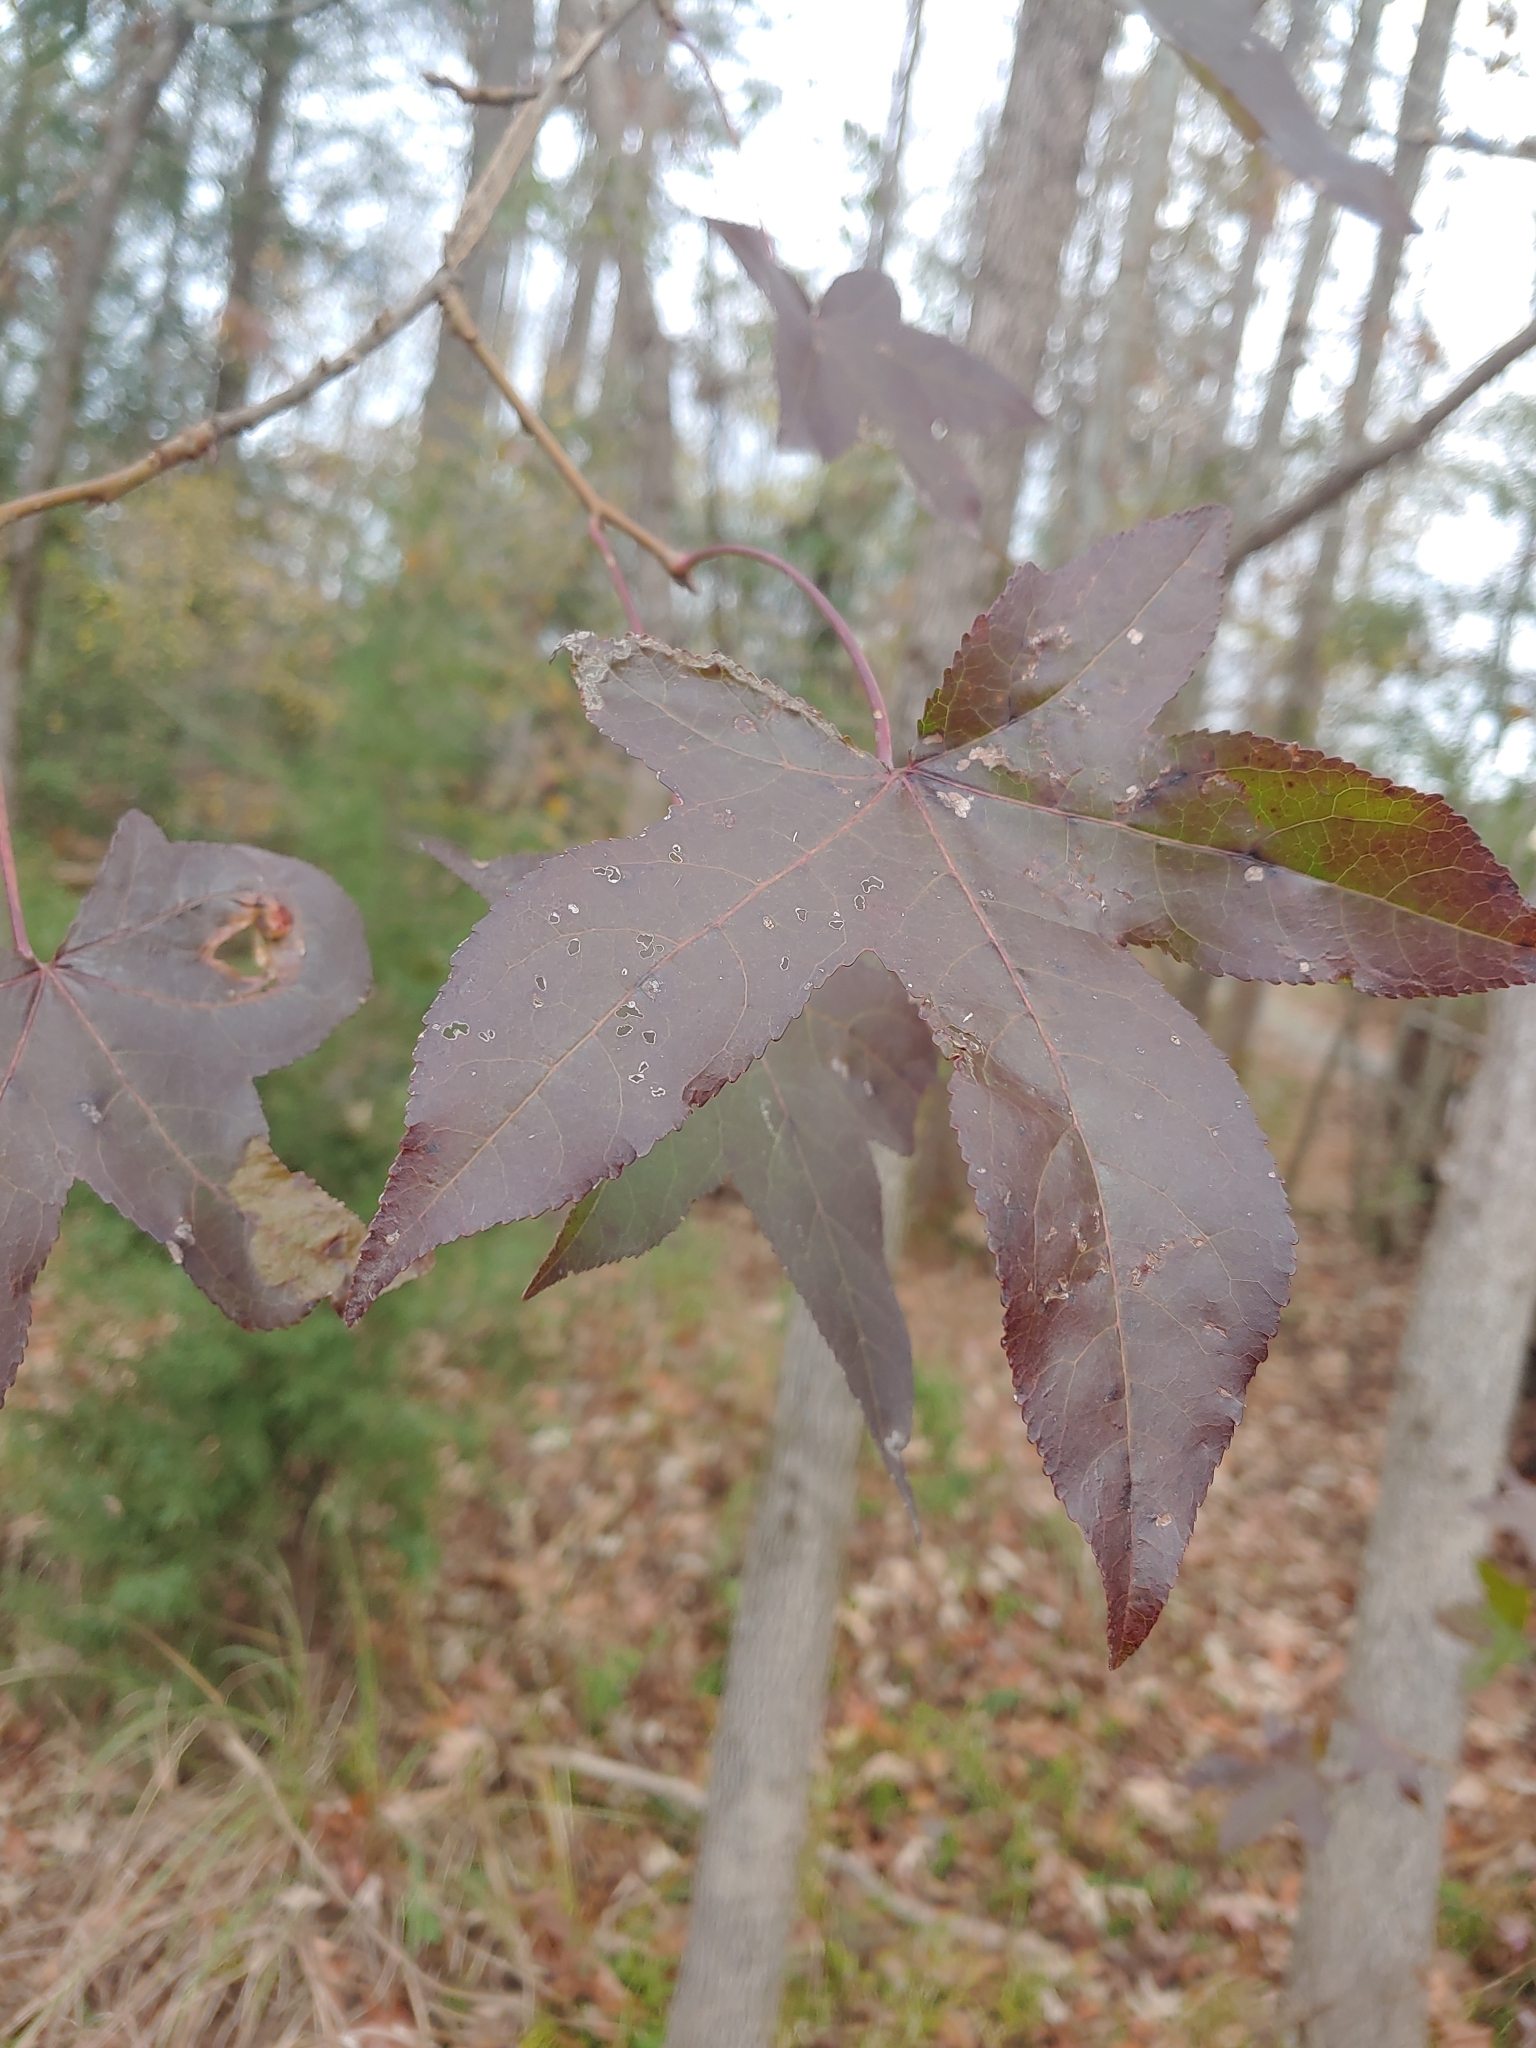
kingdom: Plantae
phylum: Tracheophyta
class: Magnoliopsida
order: Saxifragales
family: Altingiaceae
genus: Liquidambar
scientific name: Liquidambar styraciflua
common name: Sweet gum
